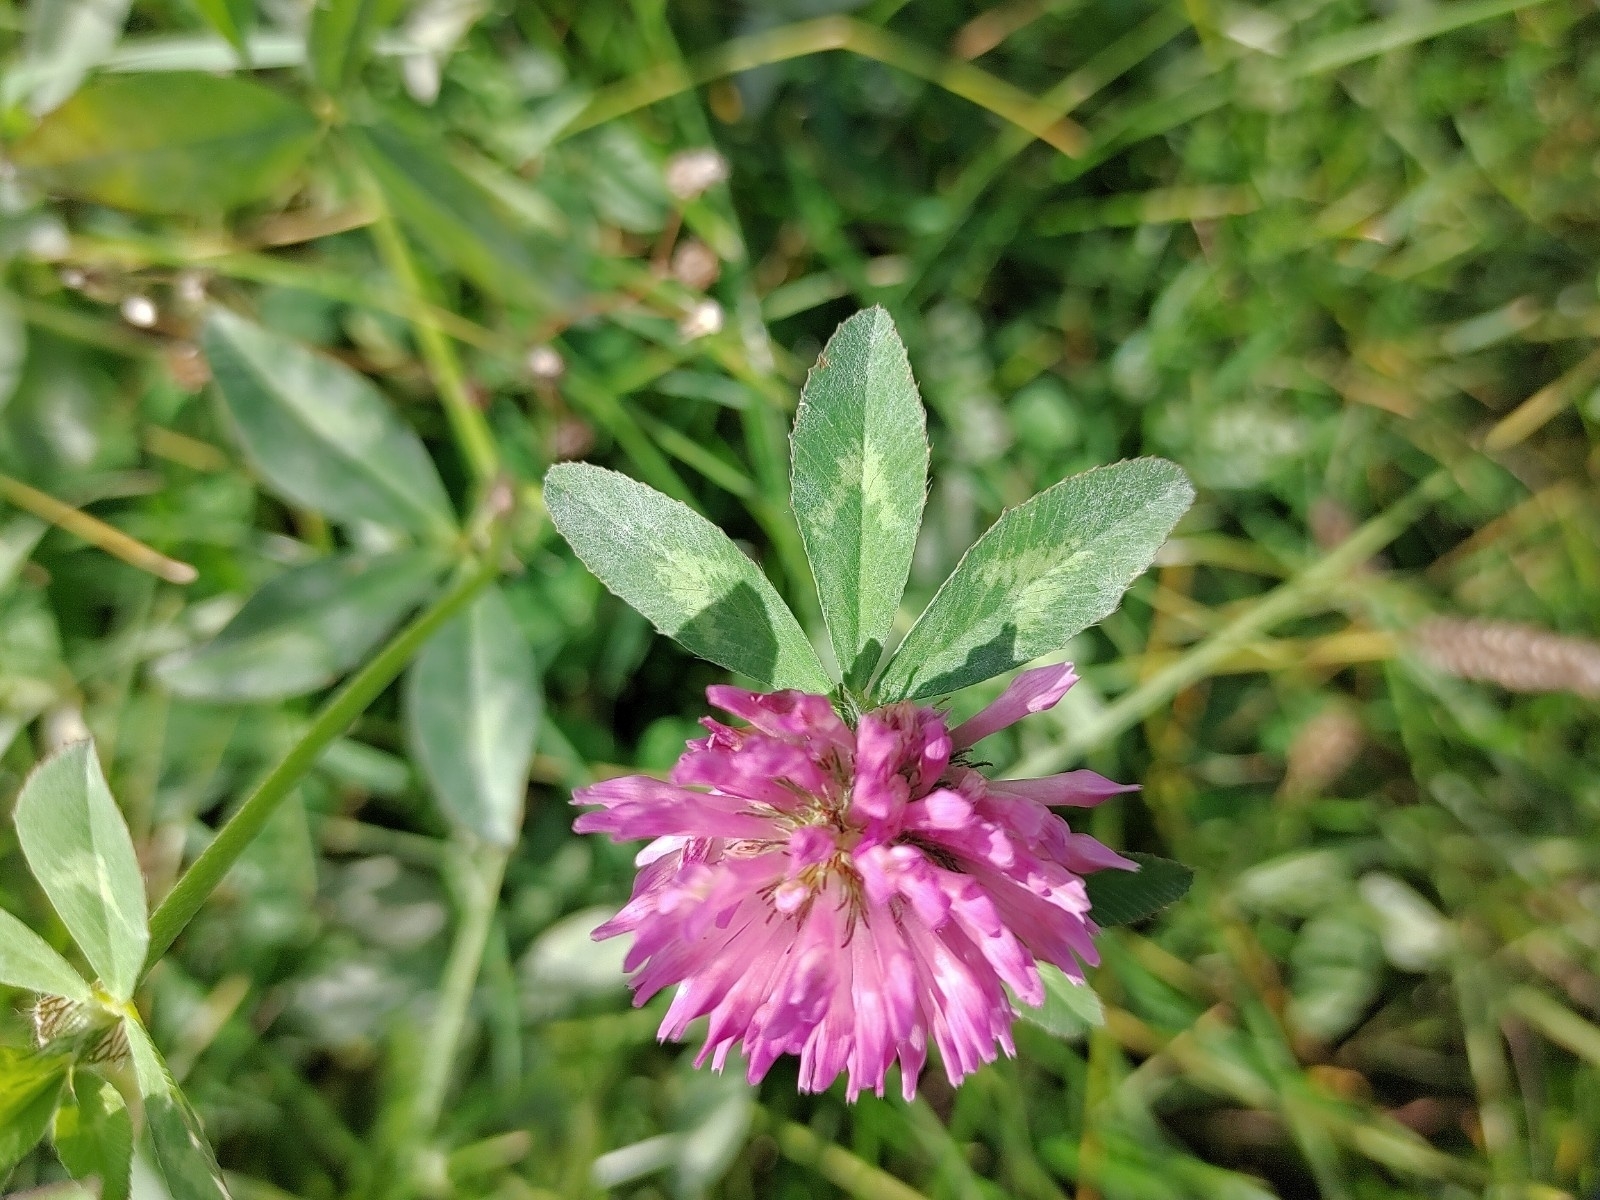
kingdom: Plantae
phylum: Tracheophyta
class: Magnoliopsida
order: Fabales
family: Fabaceae
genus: Trifolium
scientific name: Trifolium pratense
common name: Red clover
